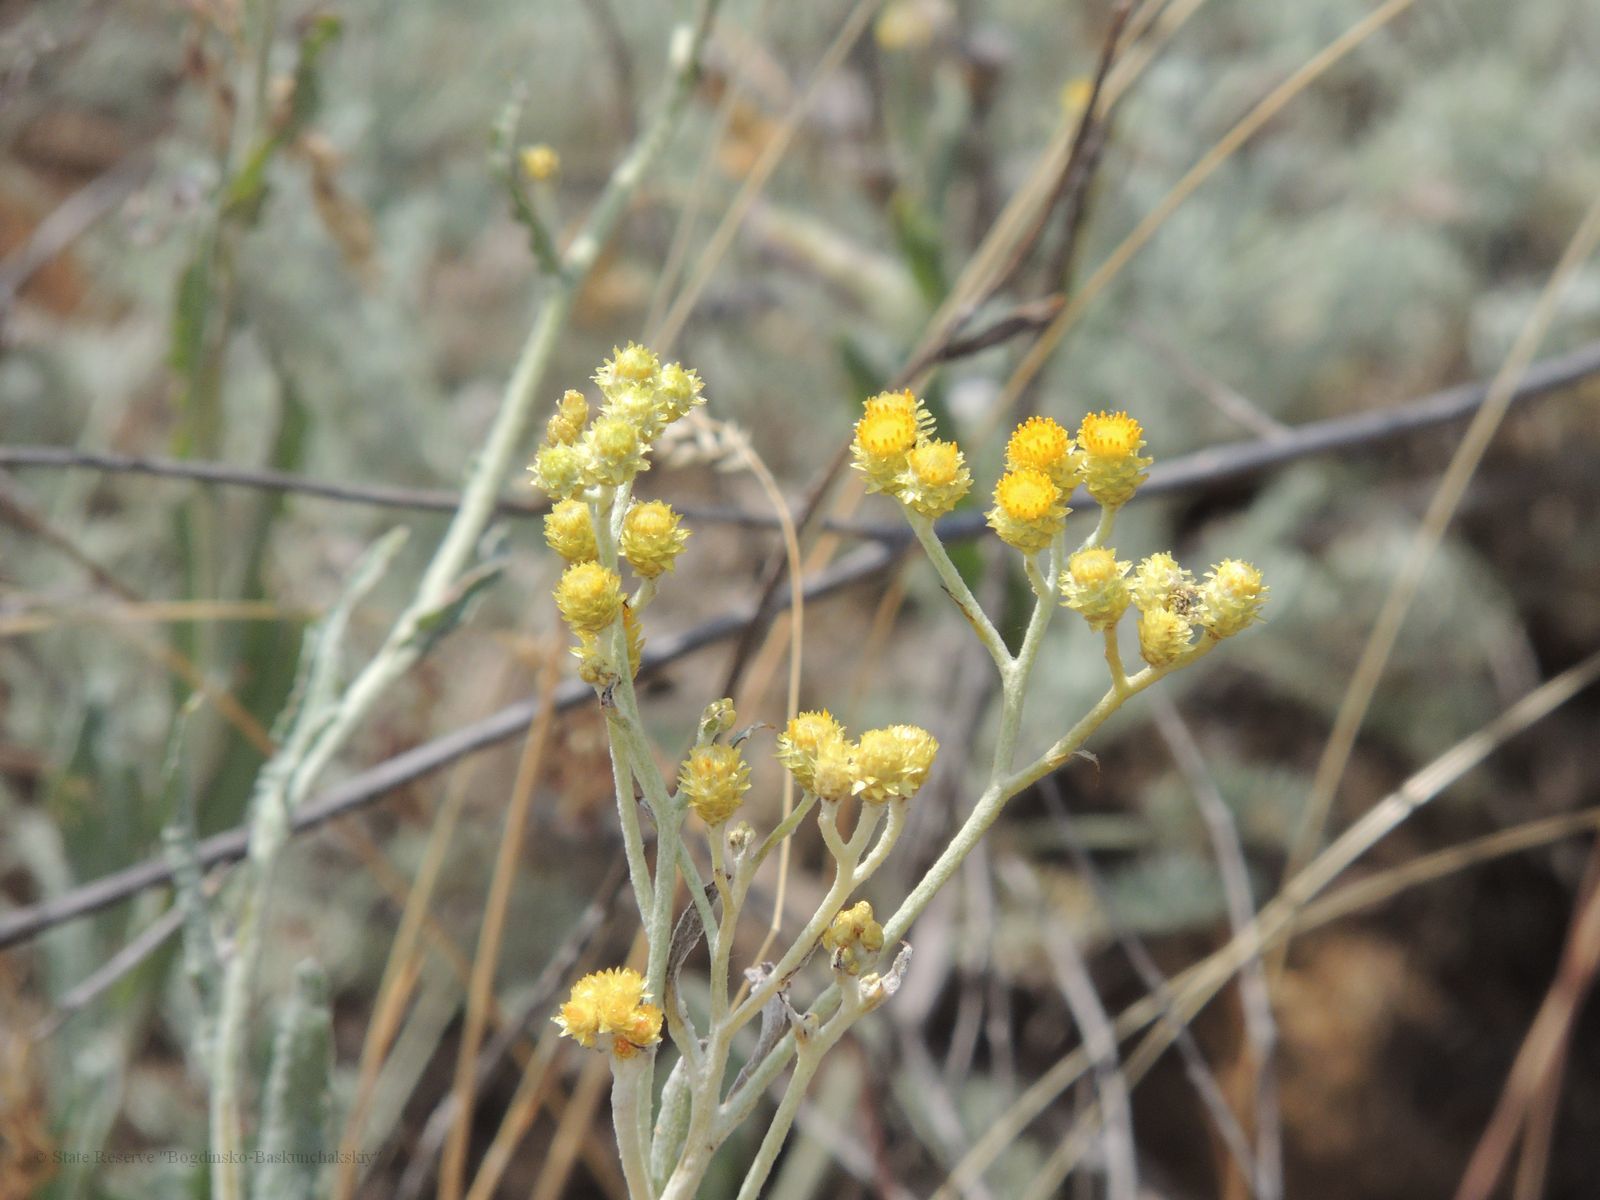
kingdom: Plantae
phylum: Tracheophyta
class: Magnoliopsida
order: Asterales
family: Asteraceae
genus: Helichrysum
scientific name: Helichrysum arenarium
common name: Strawflower
